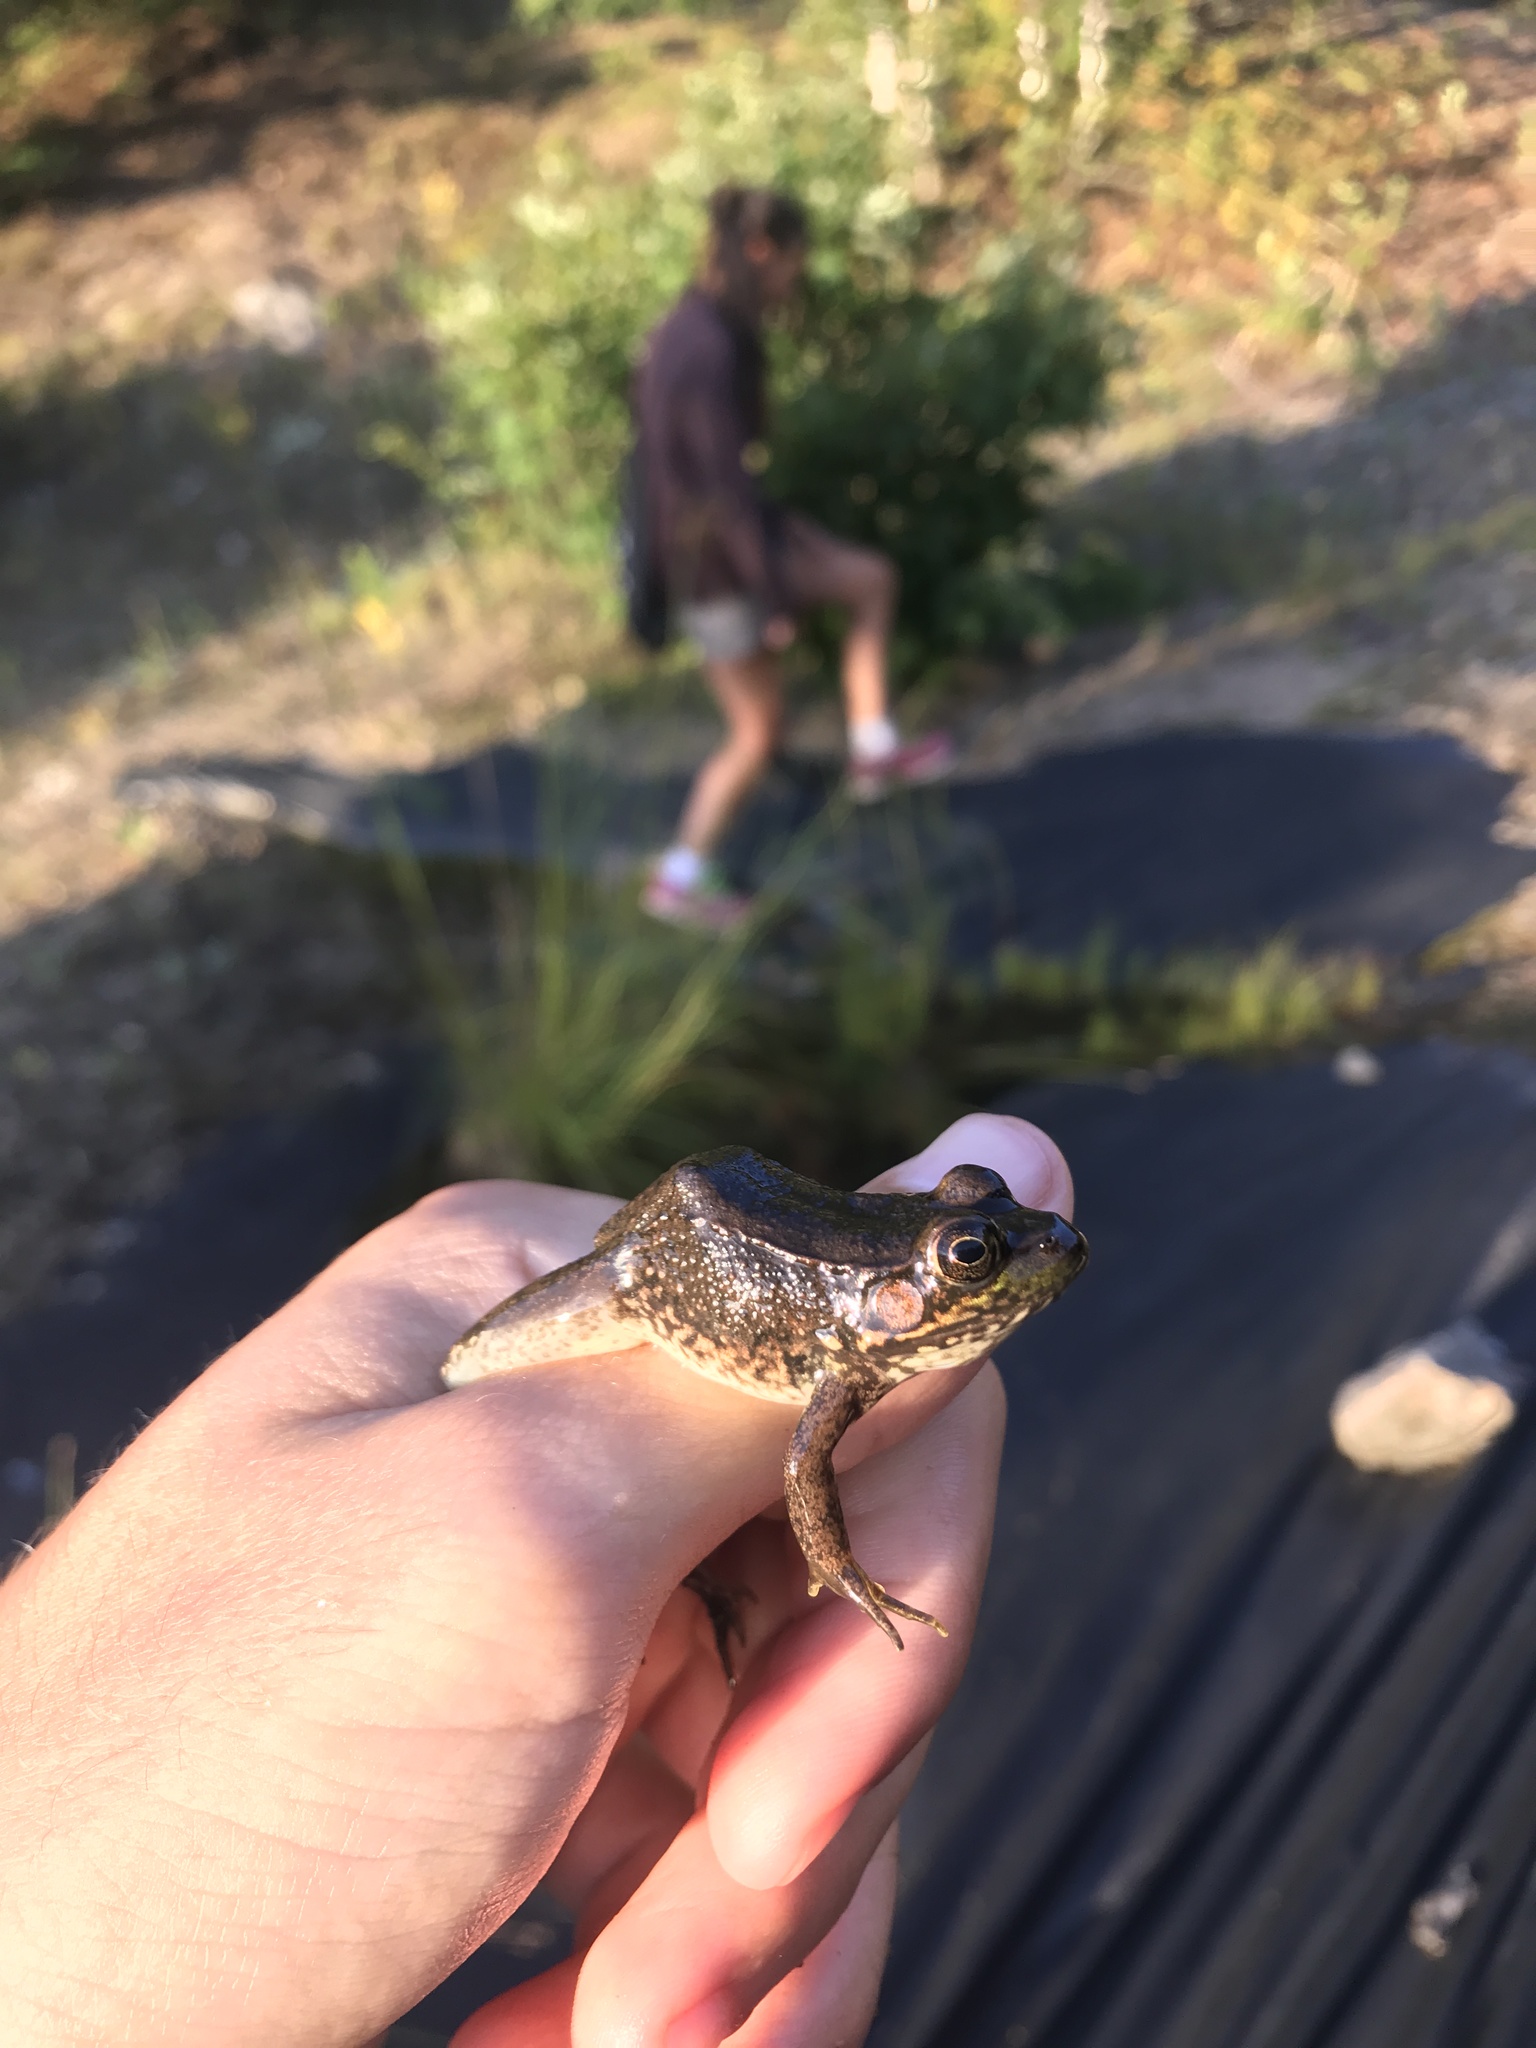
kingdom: Animalia
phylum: Chordata
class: Amphibia
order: Anura
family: Ranidae
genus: Lithobates
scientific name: Lithobates clamitans
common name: Green frog
